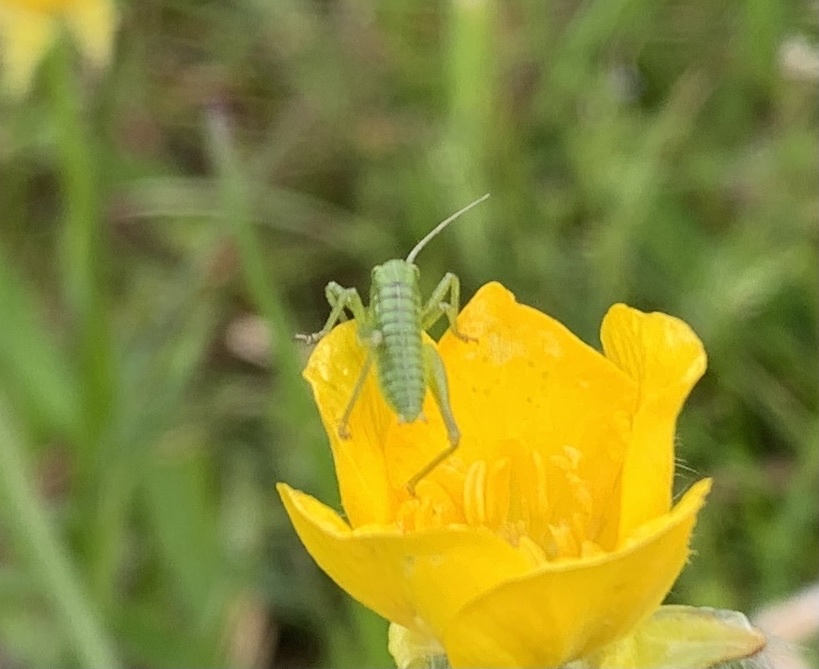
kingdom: Animalia
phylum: Arthropoda
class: Insecta
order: Orthoptera
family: Tettigoniidae
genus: Tettigonia
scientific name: Tettigonia cantans
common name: Upland green bush-cricket
